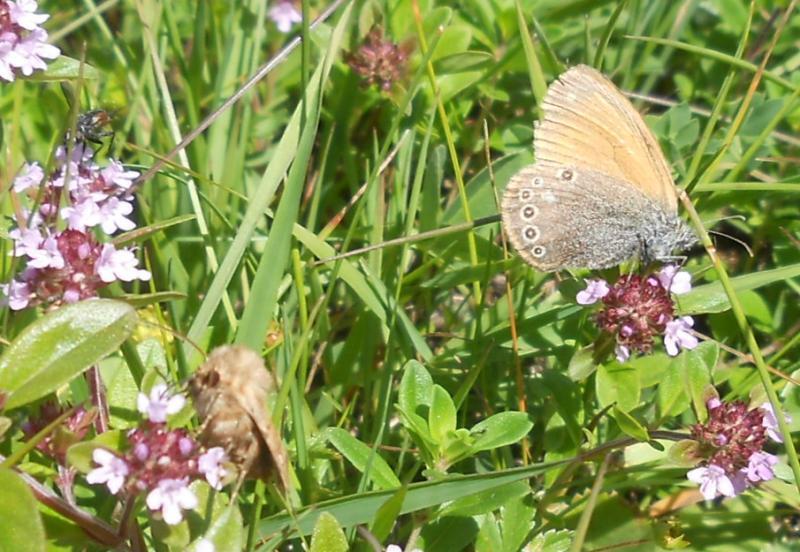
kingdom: Plantae
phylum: Tracheophyta
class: Magnoliopsida
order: Lamiales
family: Lamiaceae
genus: Thymus
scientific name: Thymus pulegioides
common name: Large thyme
